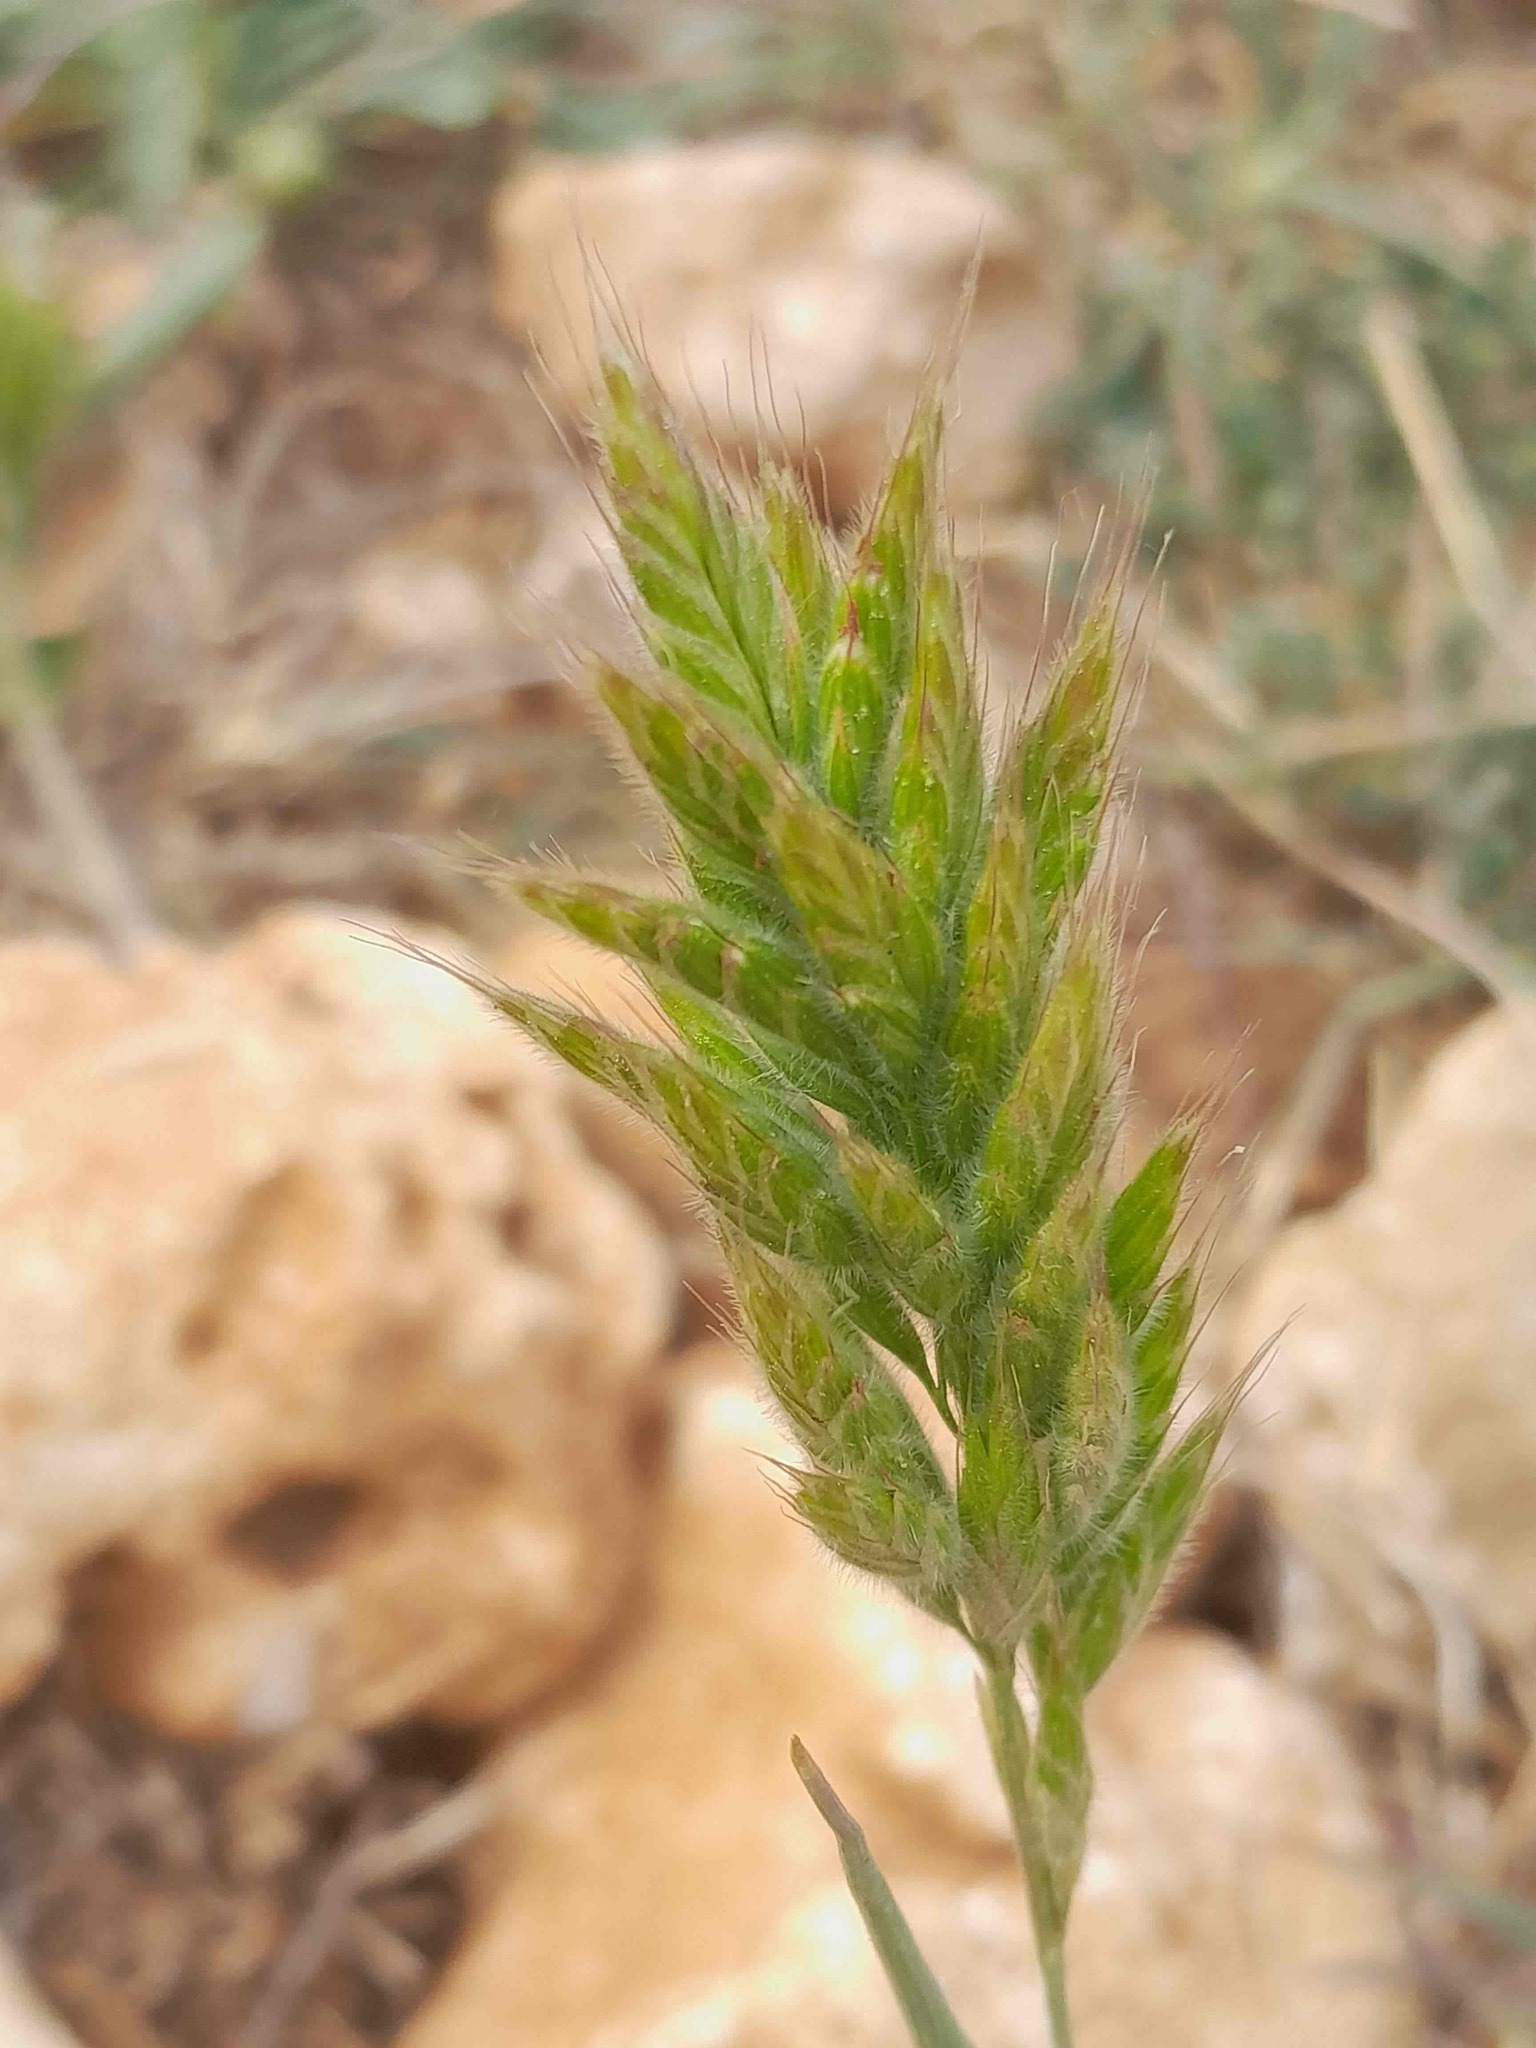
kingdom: Plantae
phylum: Tracheophyta
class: Liliopsida
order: Poales
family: Poaceae
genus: Bromus
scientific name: Bromus hordeaceus
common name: Soft brome
